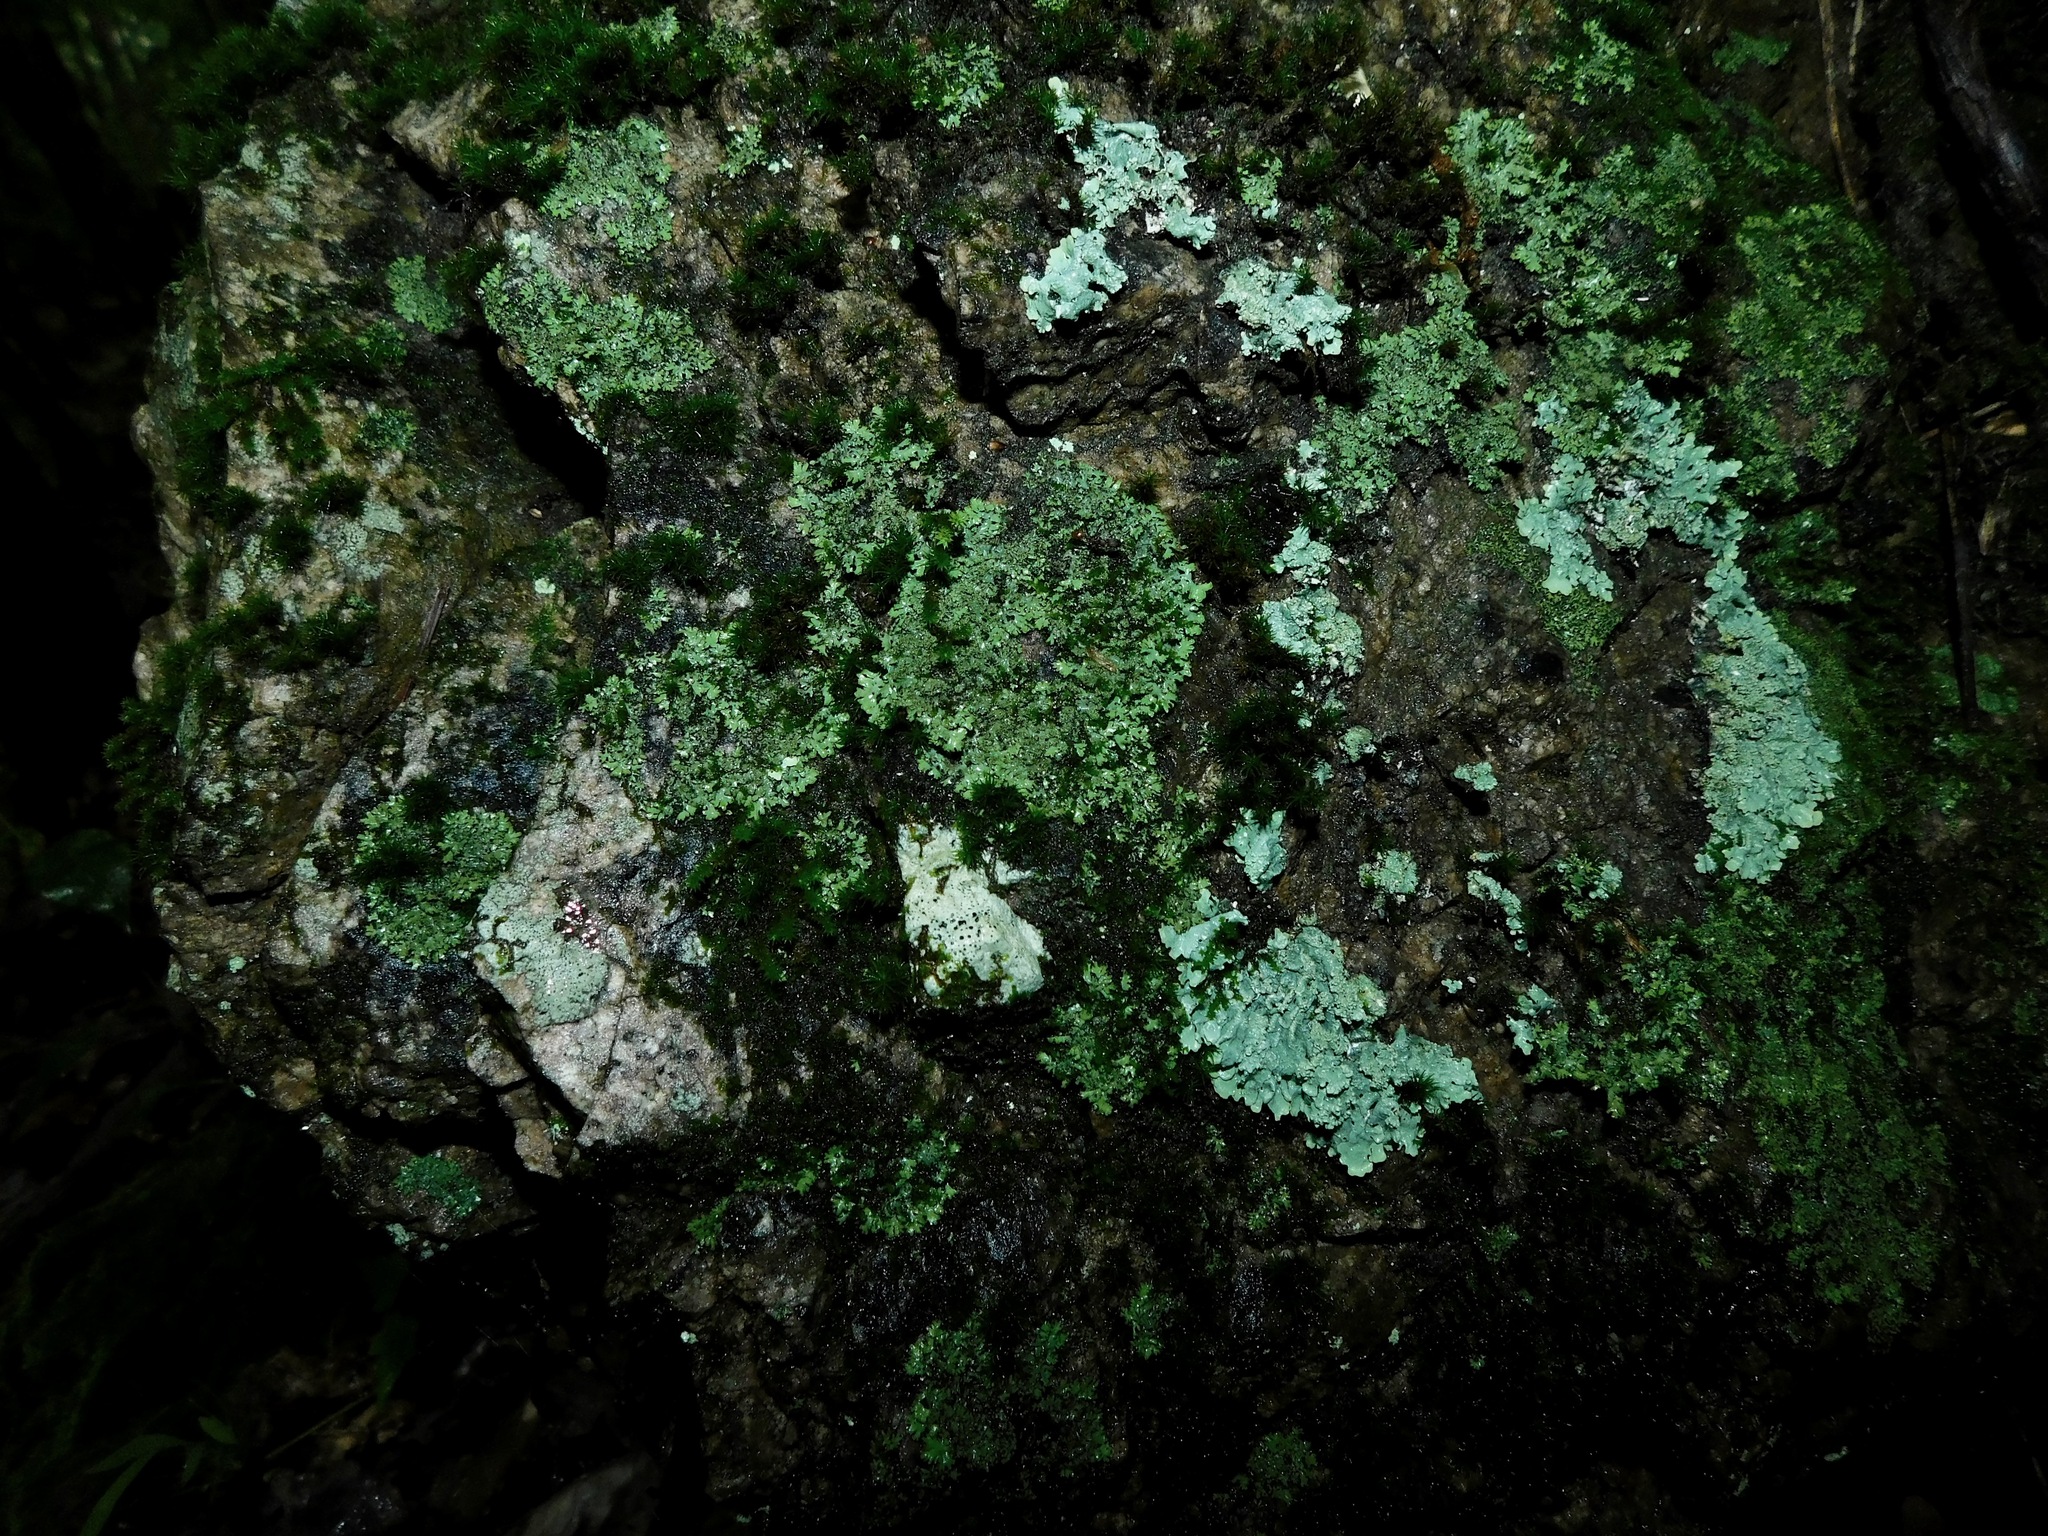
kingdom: Fungi
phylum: Ascomycota
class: Lecanoromycetes
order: Caliciales
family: Physciaceae
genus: Phaeophyscia
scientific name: Phaeophyscia adiastola
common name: Powder-tipped shadow lichen
